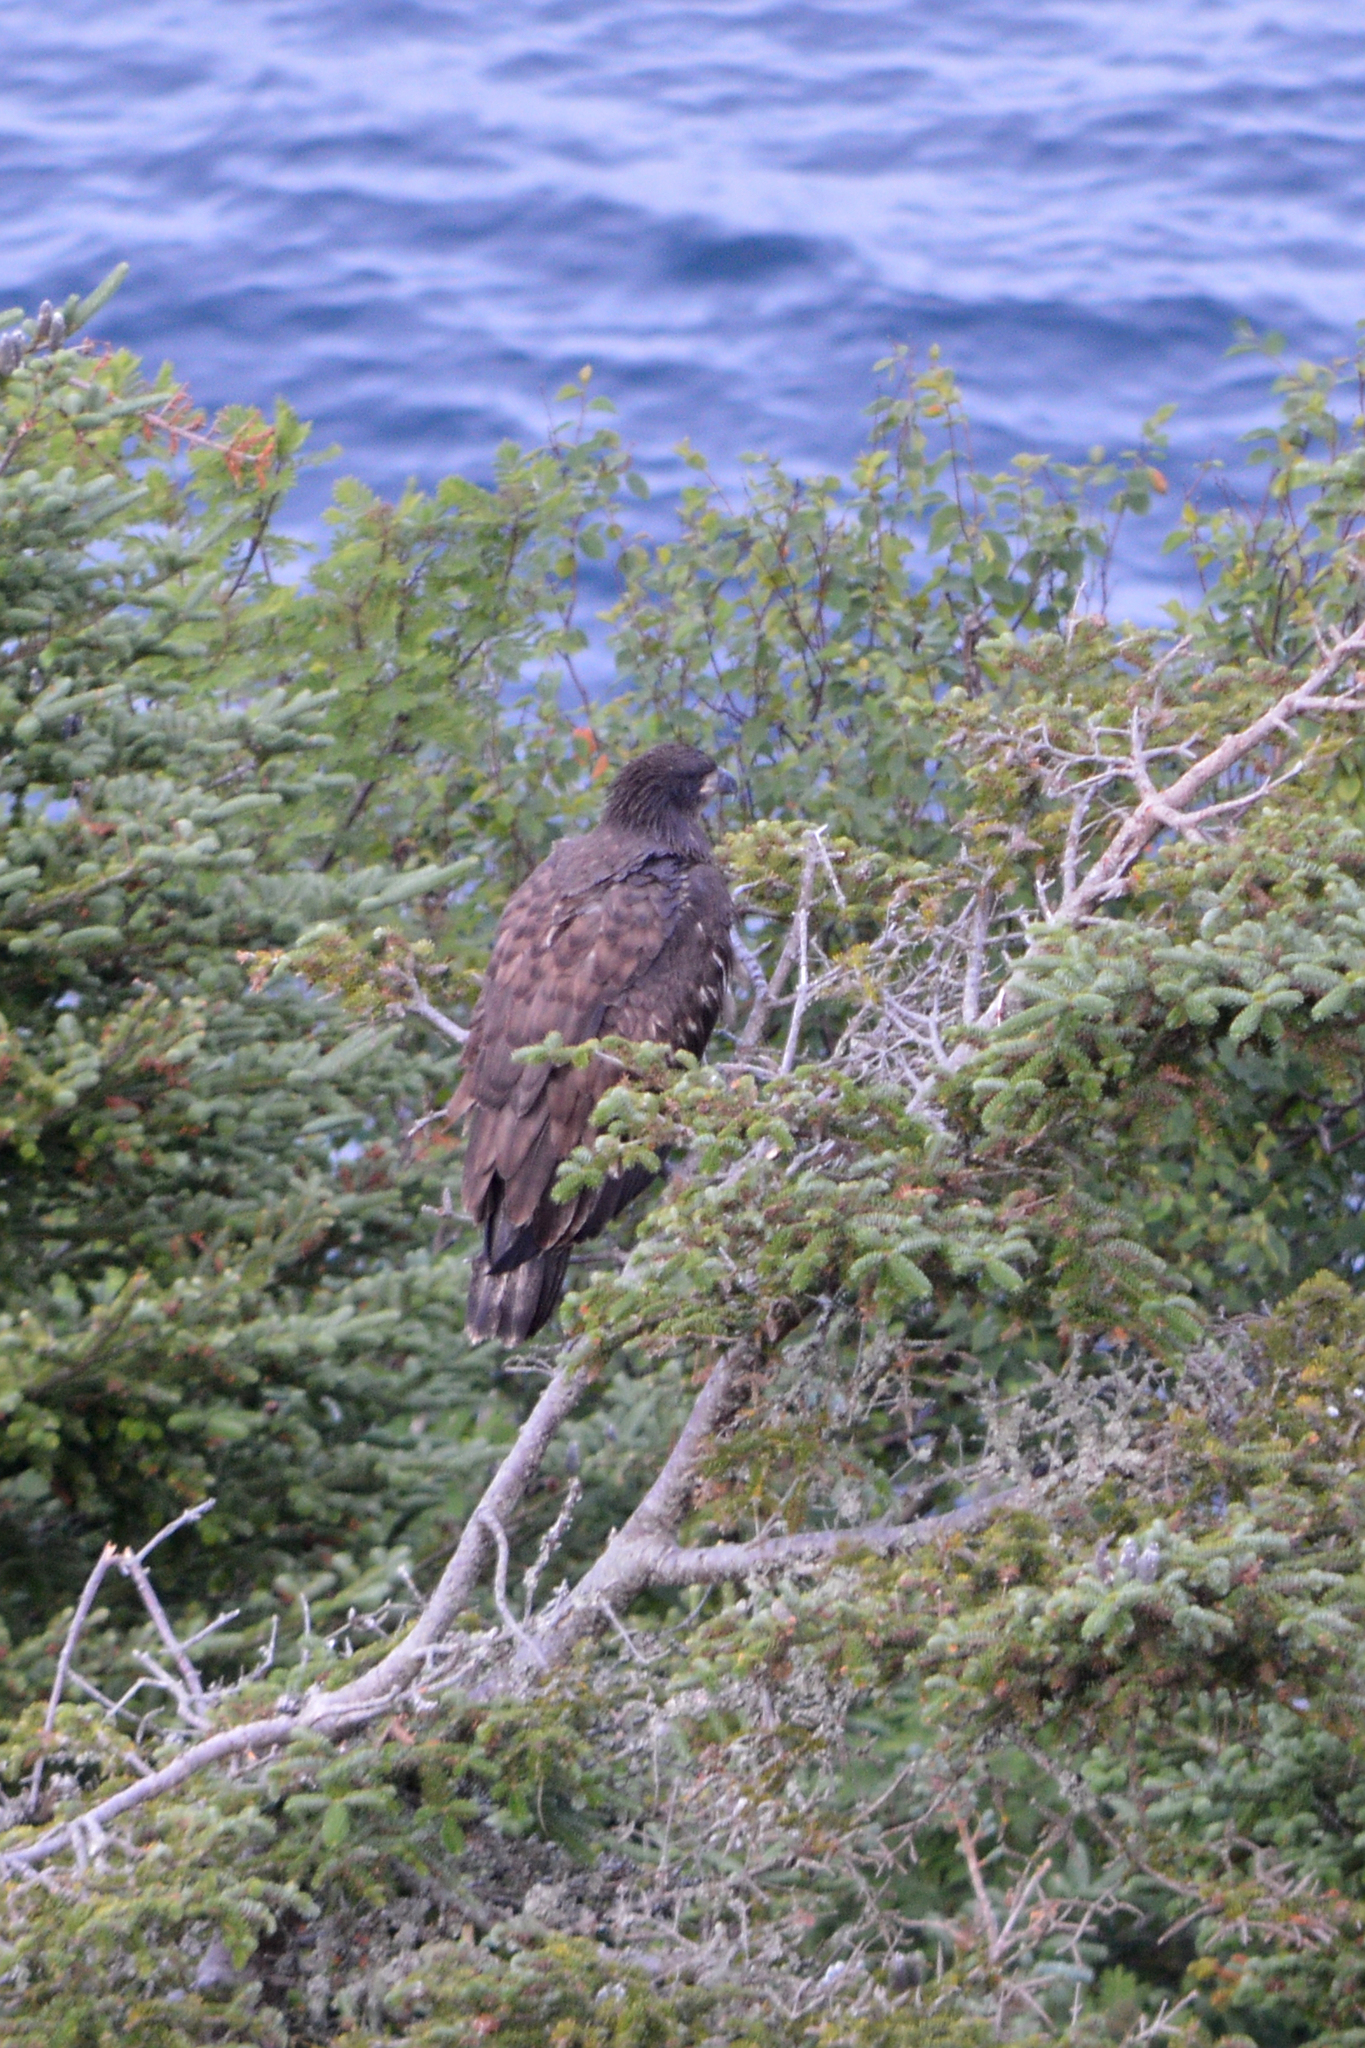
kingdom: Animalia
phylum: Chordata
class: Aves
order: Accipitriformes
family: Accipitridae
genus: Haliaeetus
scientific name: Haliaeetus leucocephalus
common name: Bald eagle
